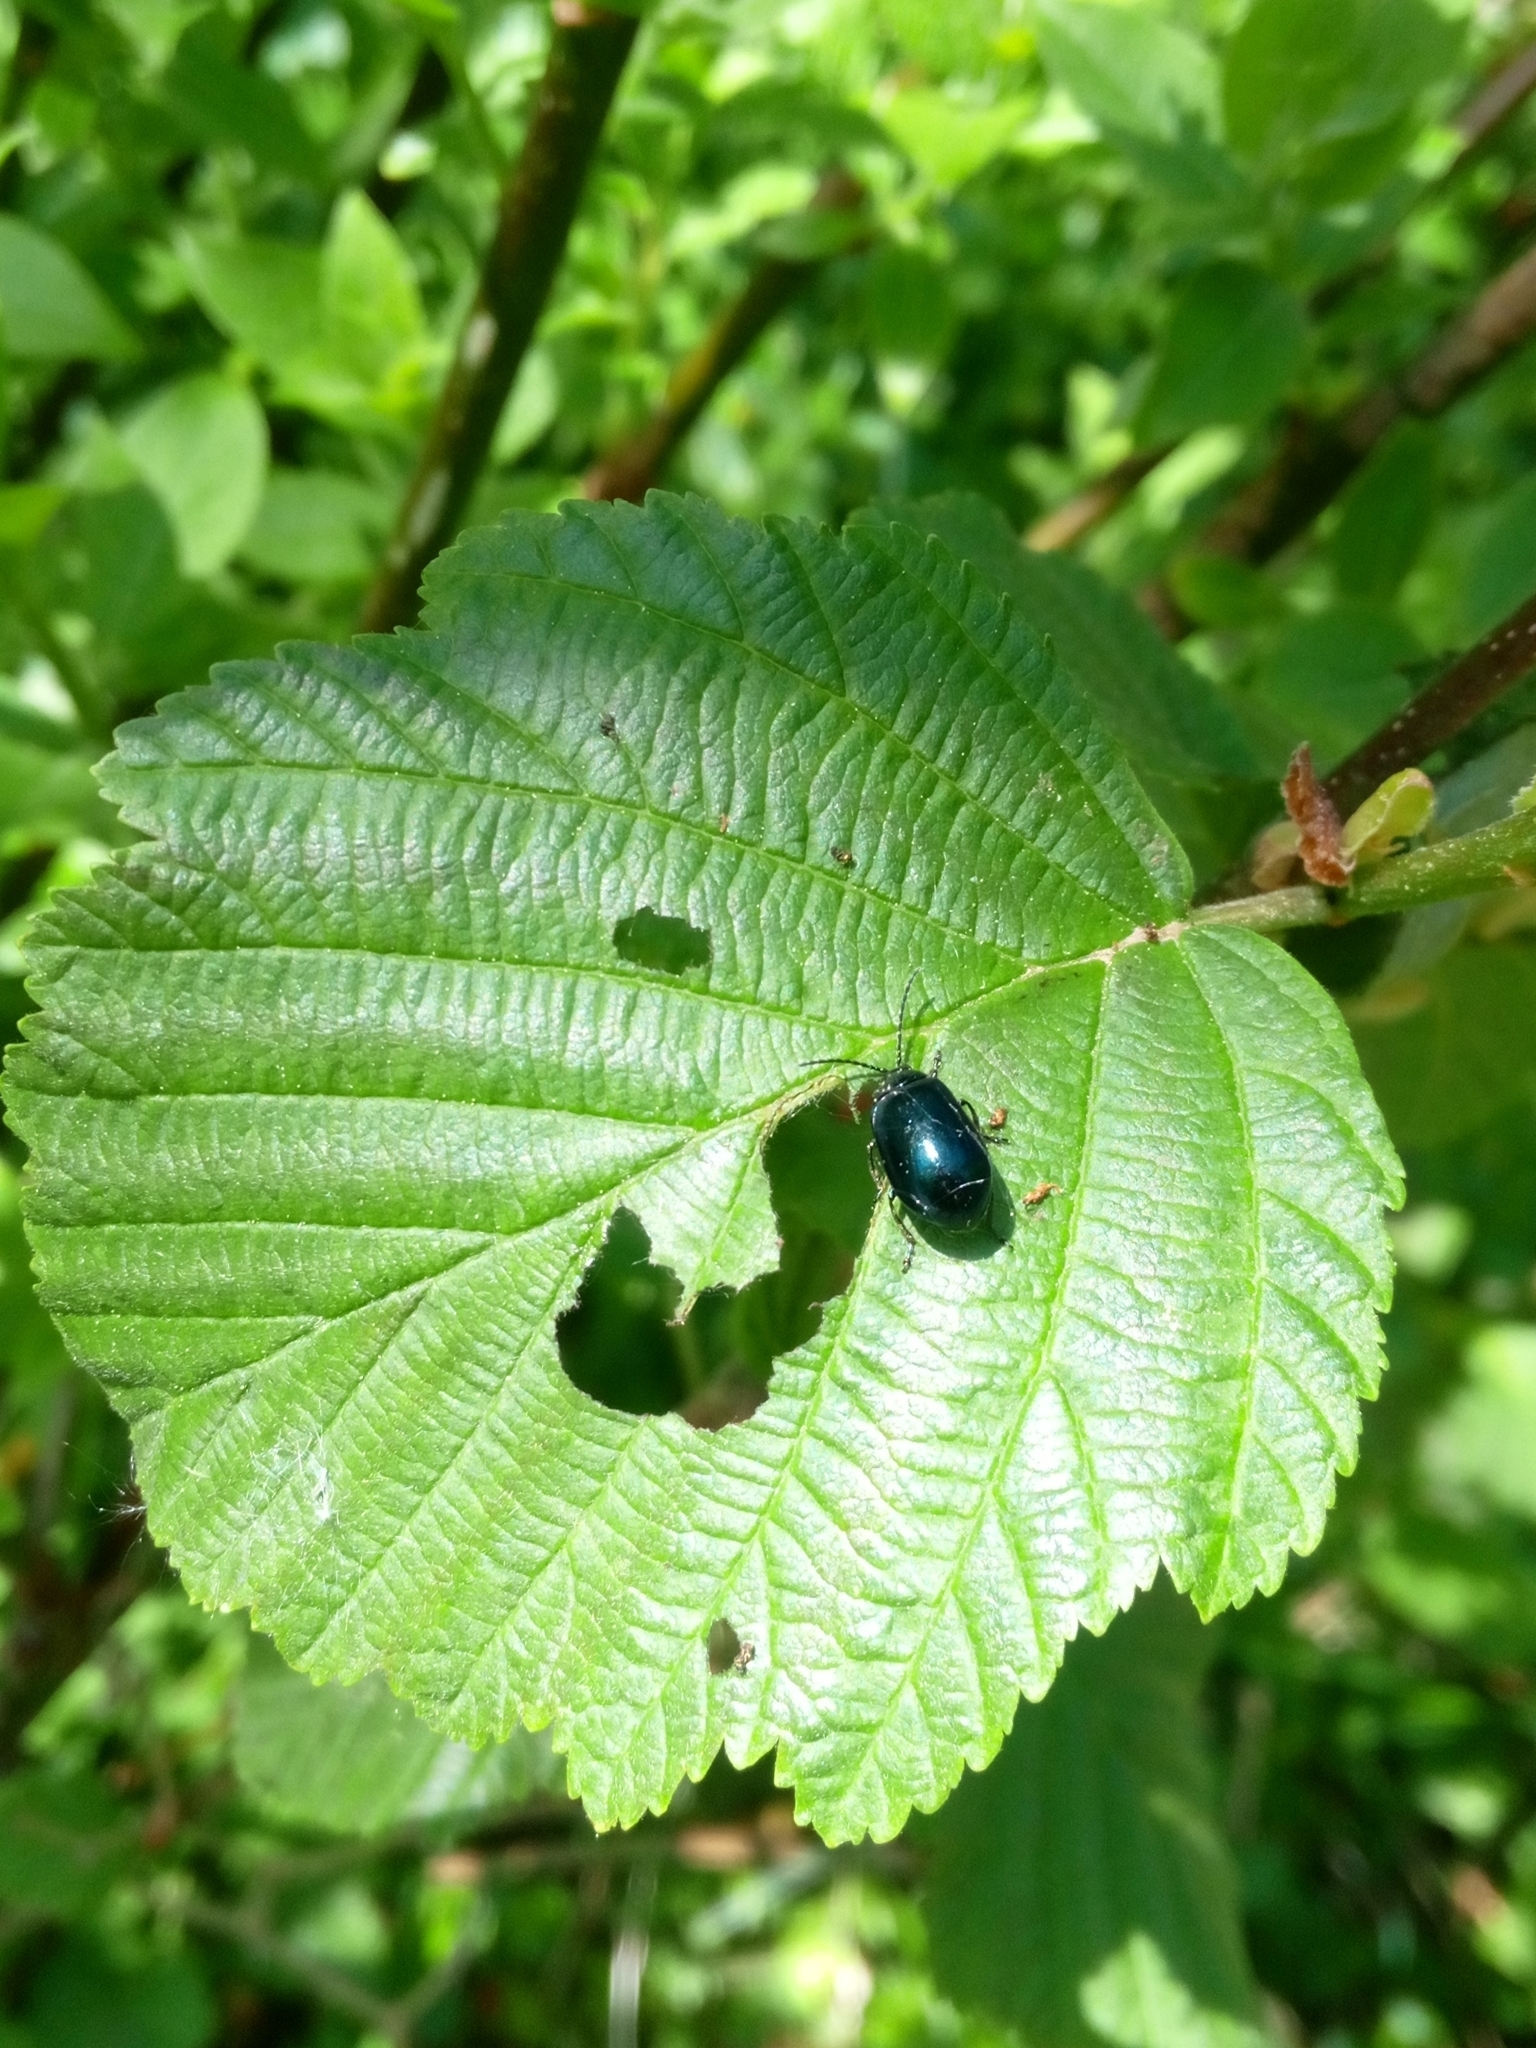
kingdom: Animalia
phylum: Arthropoda
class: Insecta
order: Coleoptera
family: Chrysomelidae
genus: Agelastica
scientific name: Agelastica alni
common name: Alder leaf beetle
